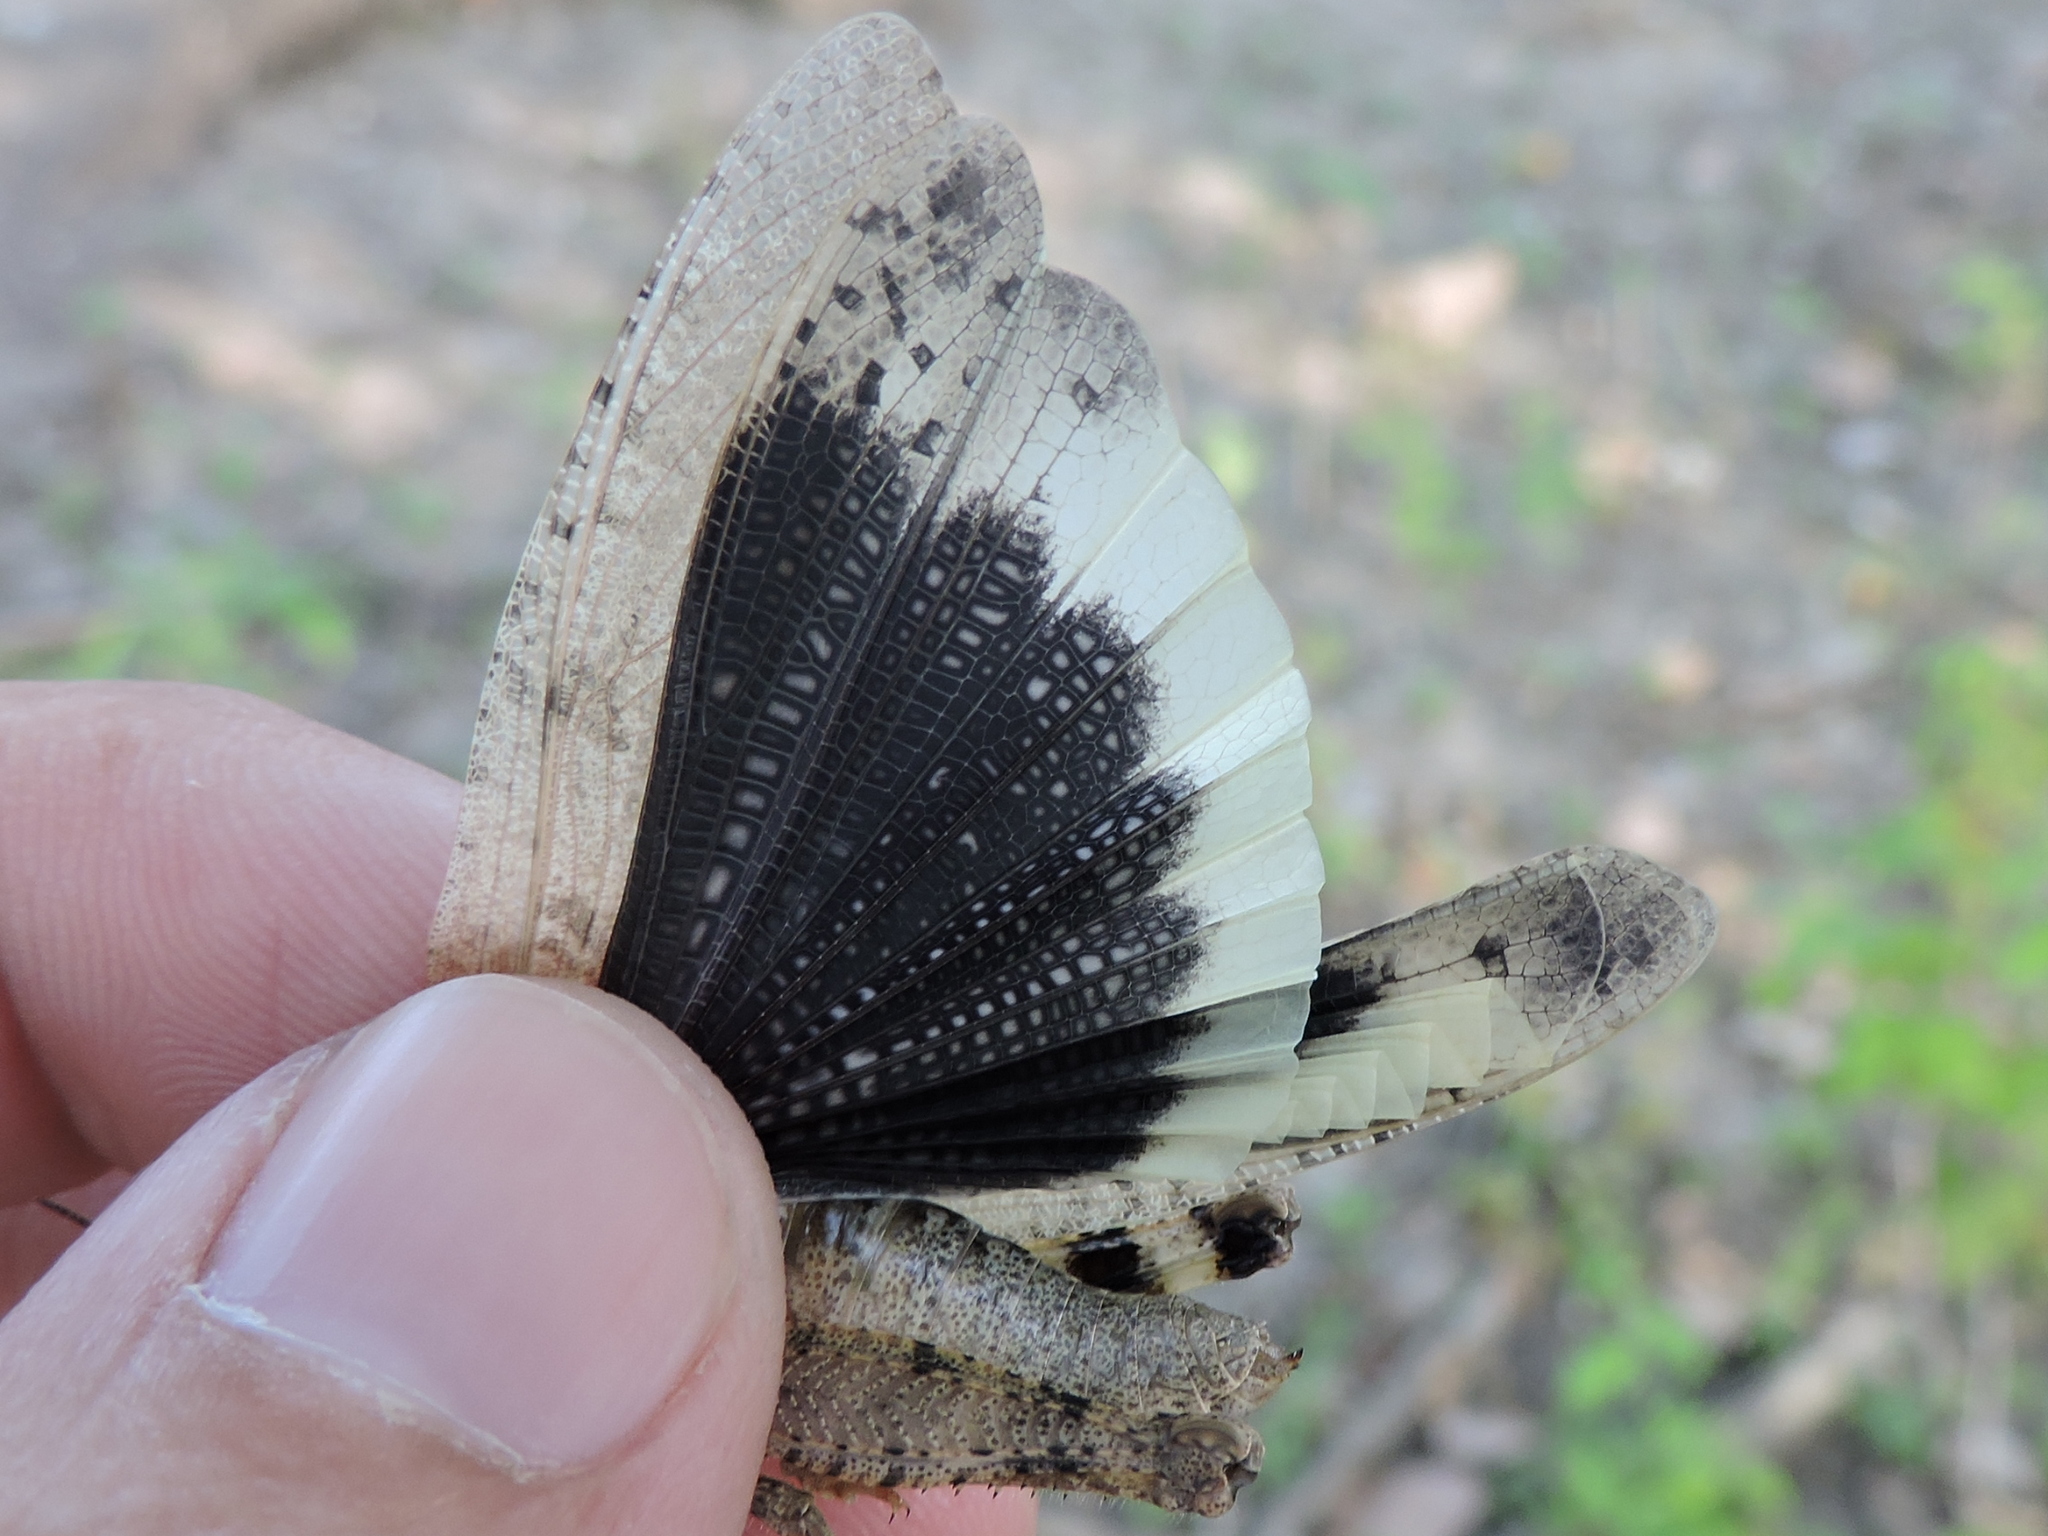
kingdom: Animalia
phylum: Arthropoda
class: Insecta
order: Orthoptera
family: Acrididae
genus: Dissosteira
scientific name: Dissosteira carolina
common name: Carolina grasshopper
